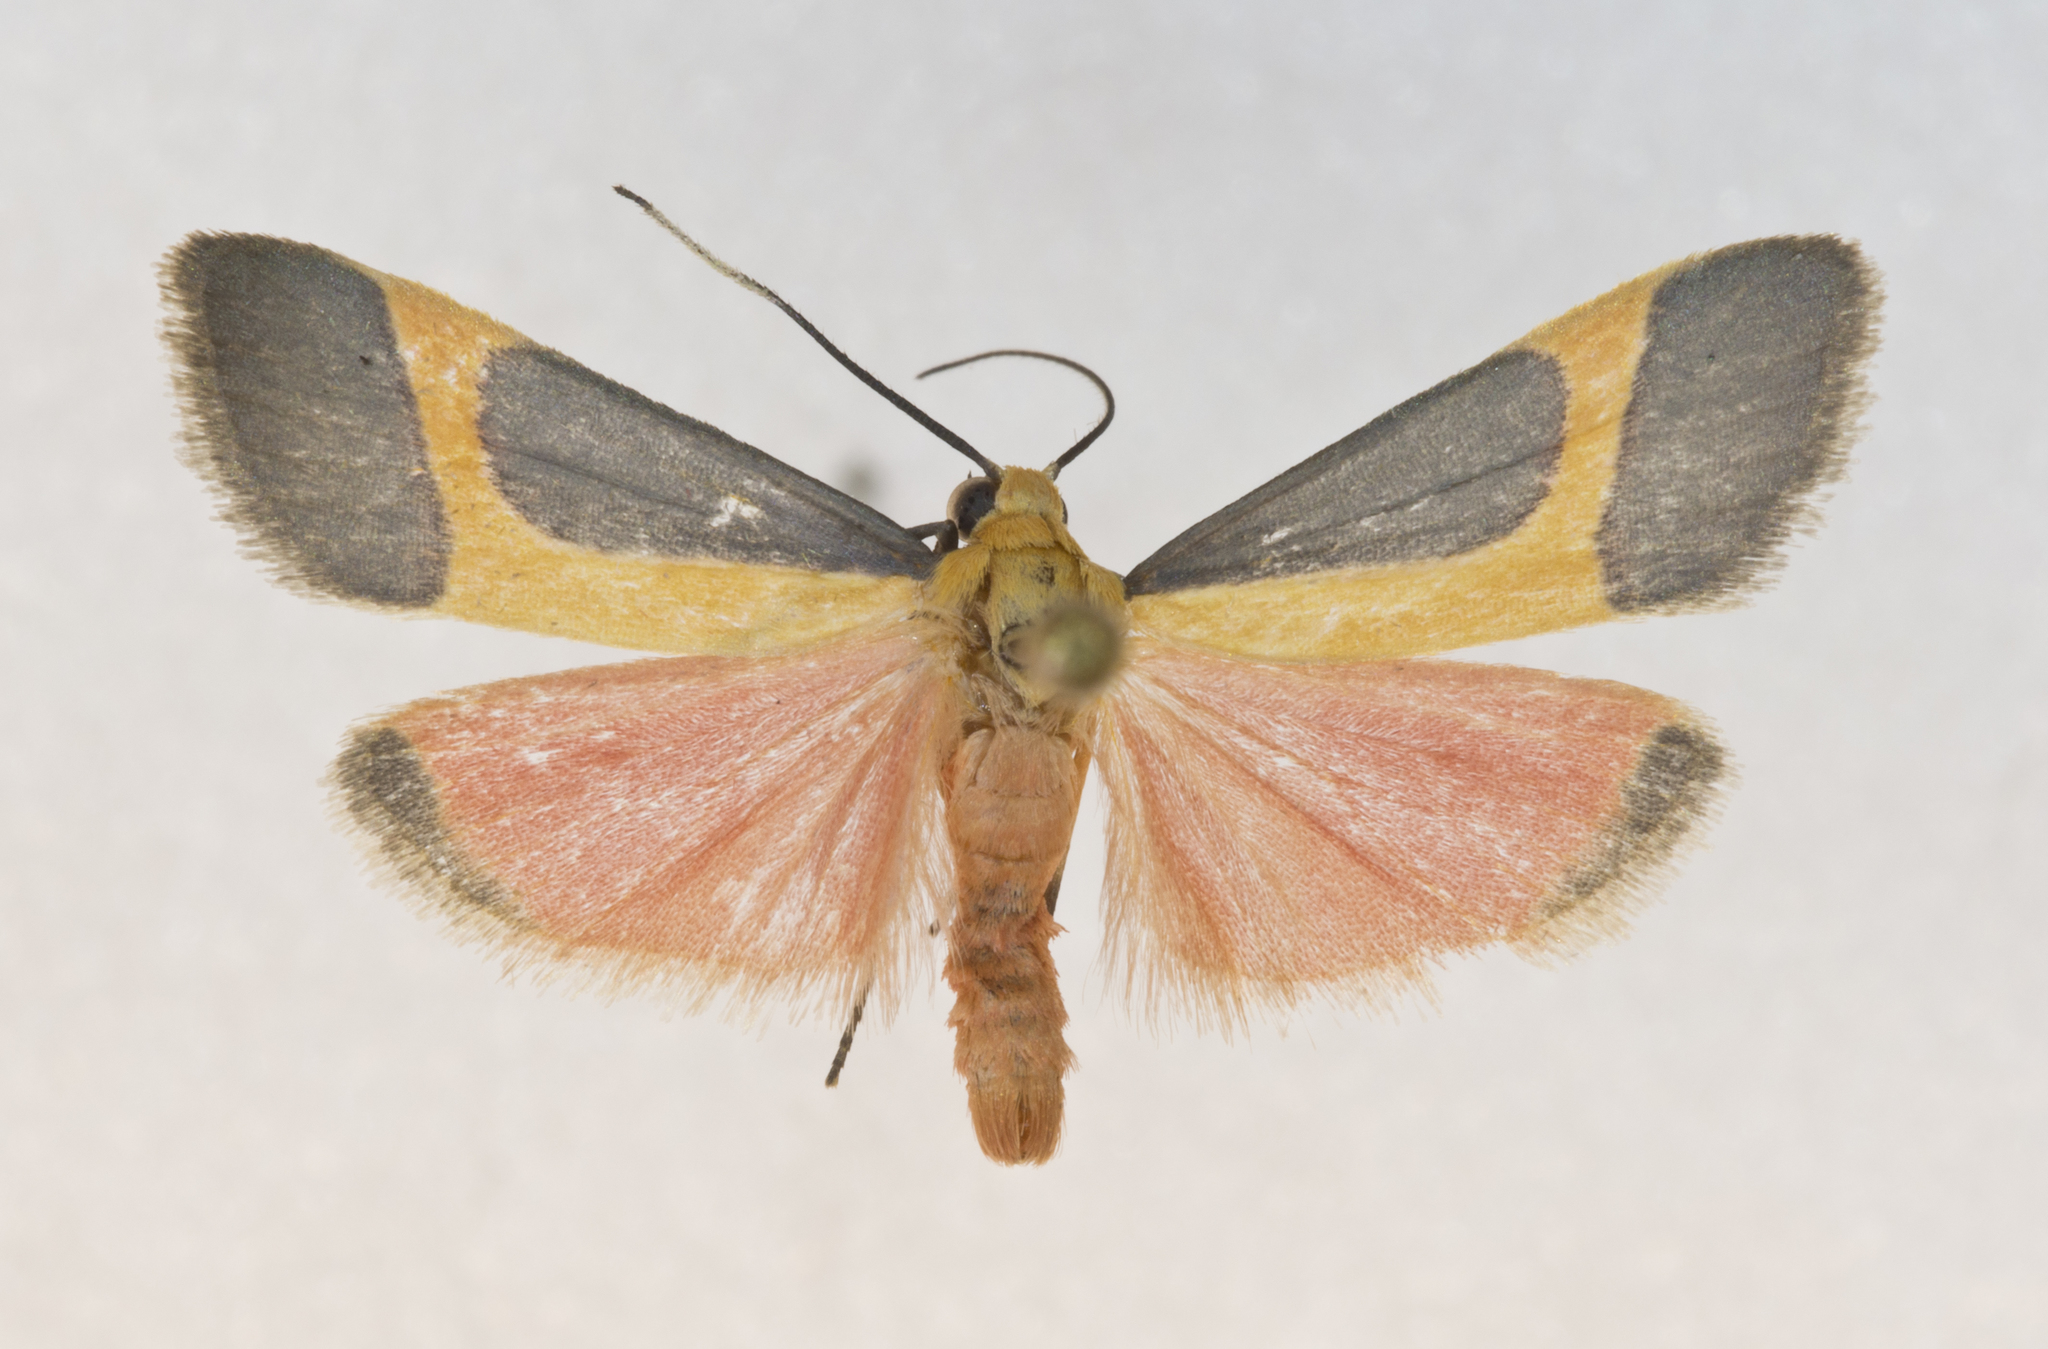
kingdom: Animalia
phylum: Arthropoda
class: Insecta
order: Lepidoptera
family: Erebidae
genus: Cisthene
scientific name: Cisthene angelus
